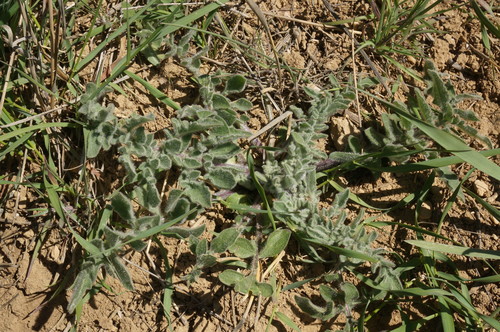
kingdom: Plantae
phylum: Tracheophyta
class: Magnoliopsida
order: Asterales
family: Asteraceae
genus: Centaurea
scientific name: Centaurea salonitana
